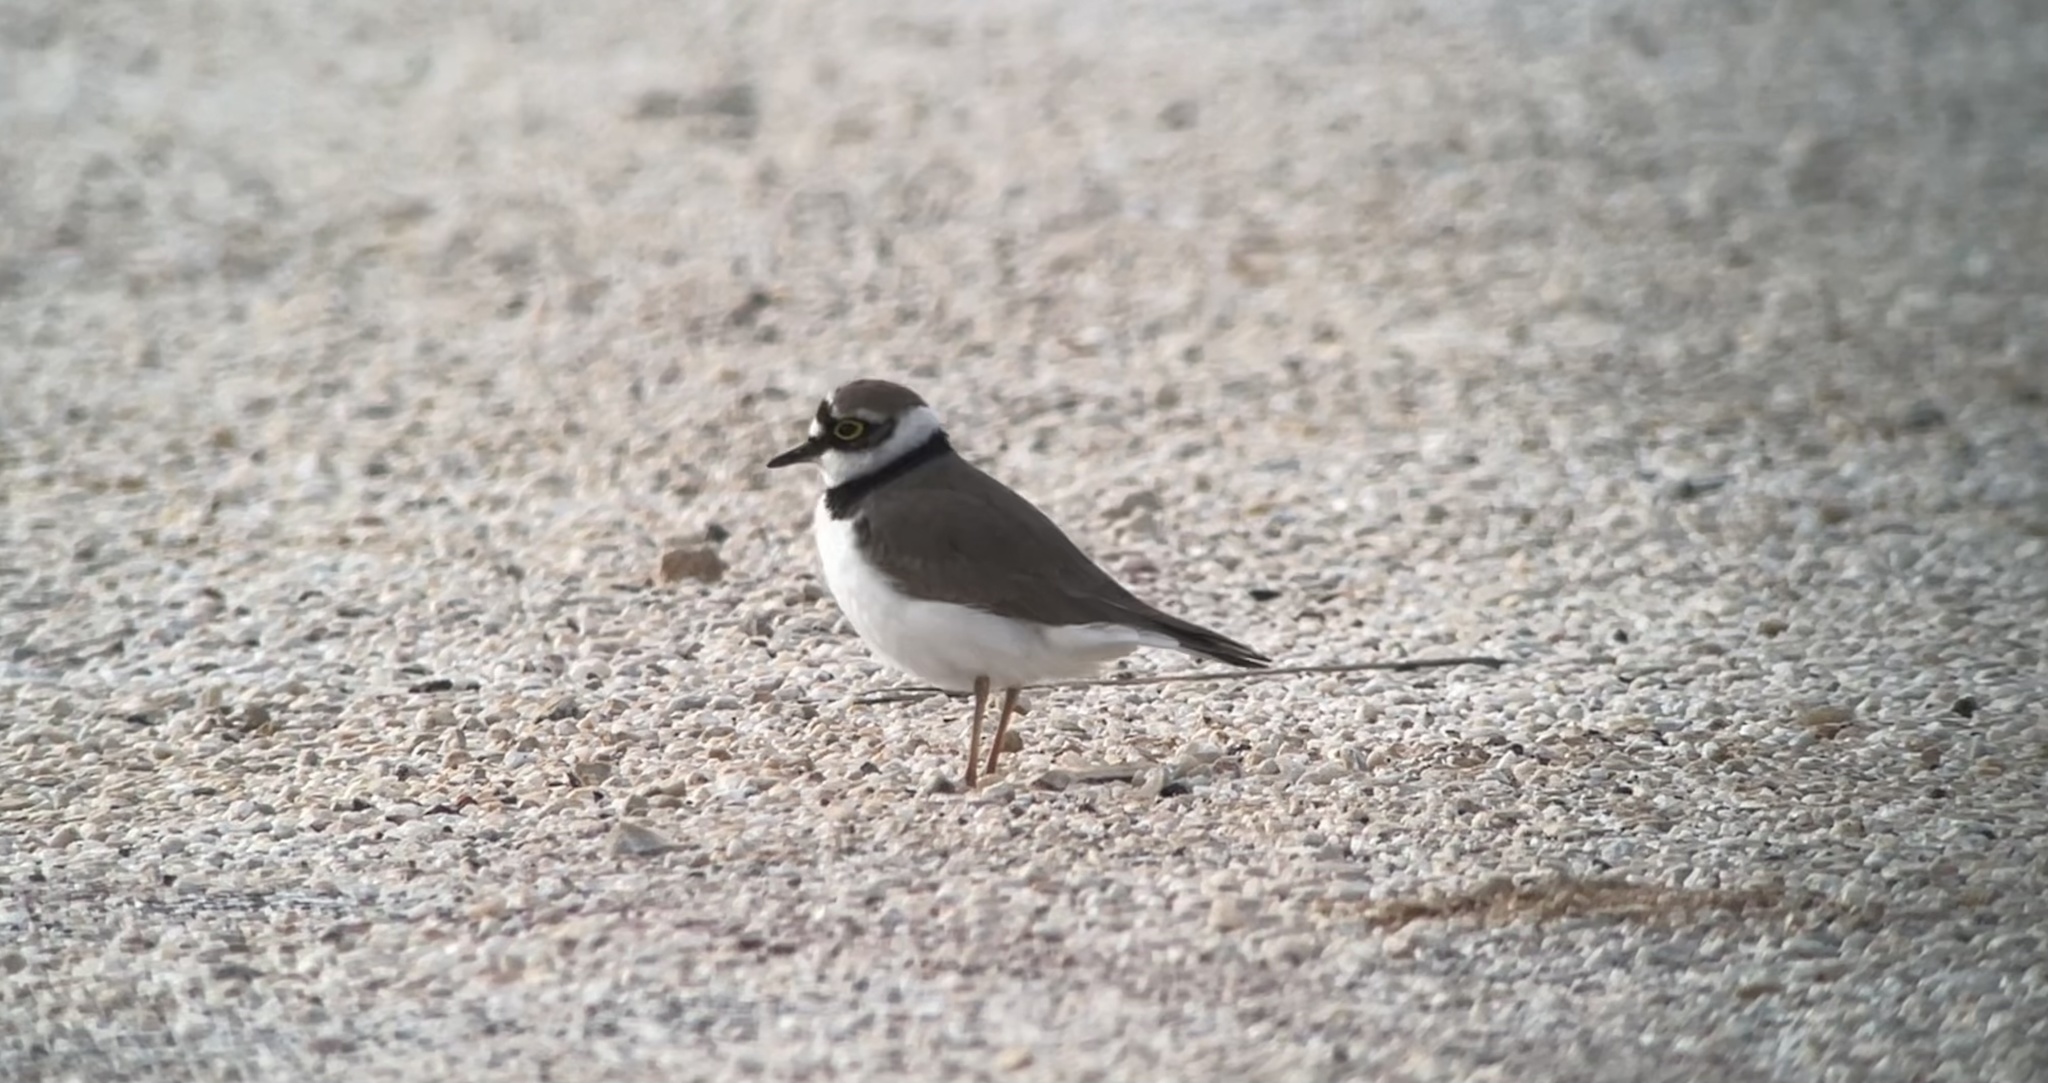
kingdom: Animalia
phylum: Chordata
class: Aves
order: Charadriiformes
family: Charadriidae
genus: Charadrius
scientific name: Charadrius dubius
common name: Little ringed plover
